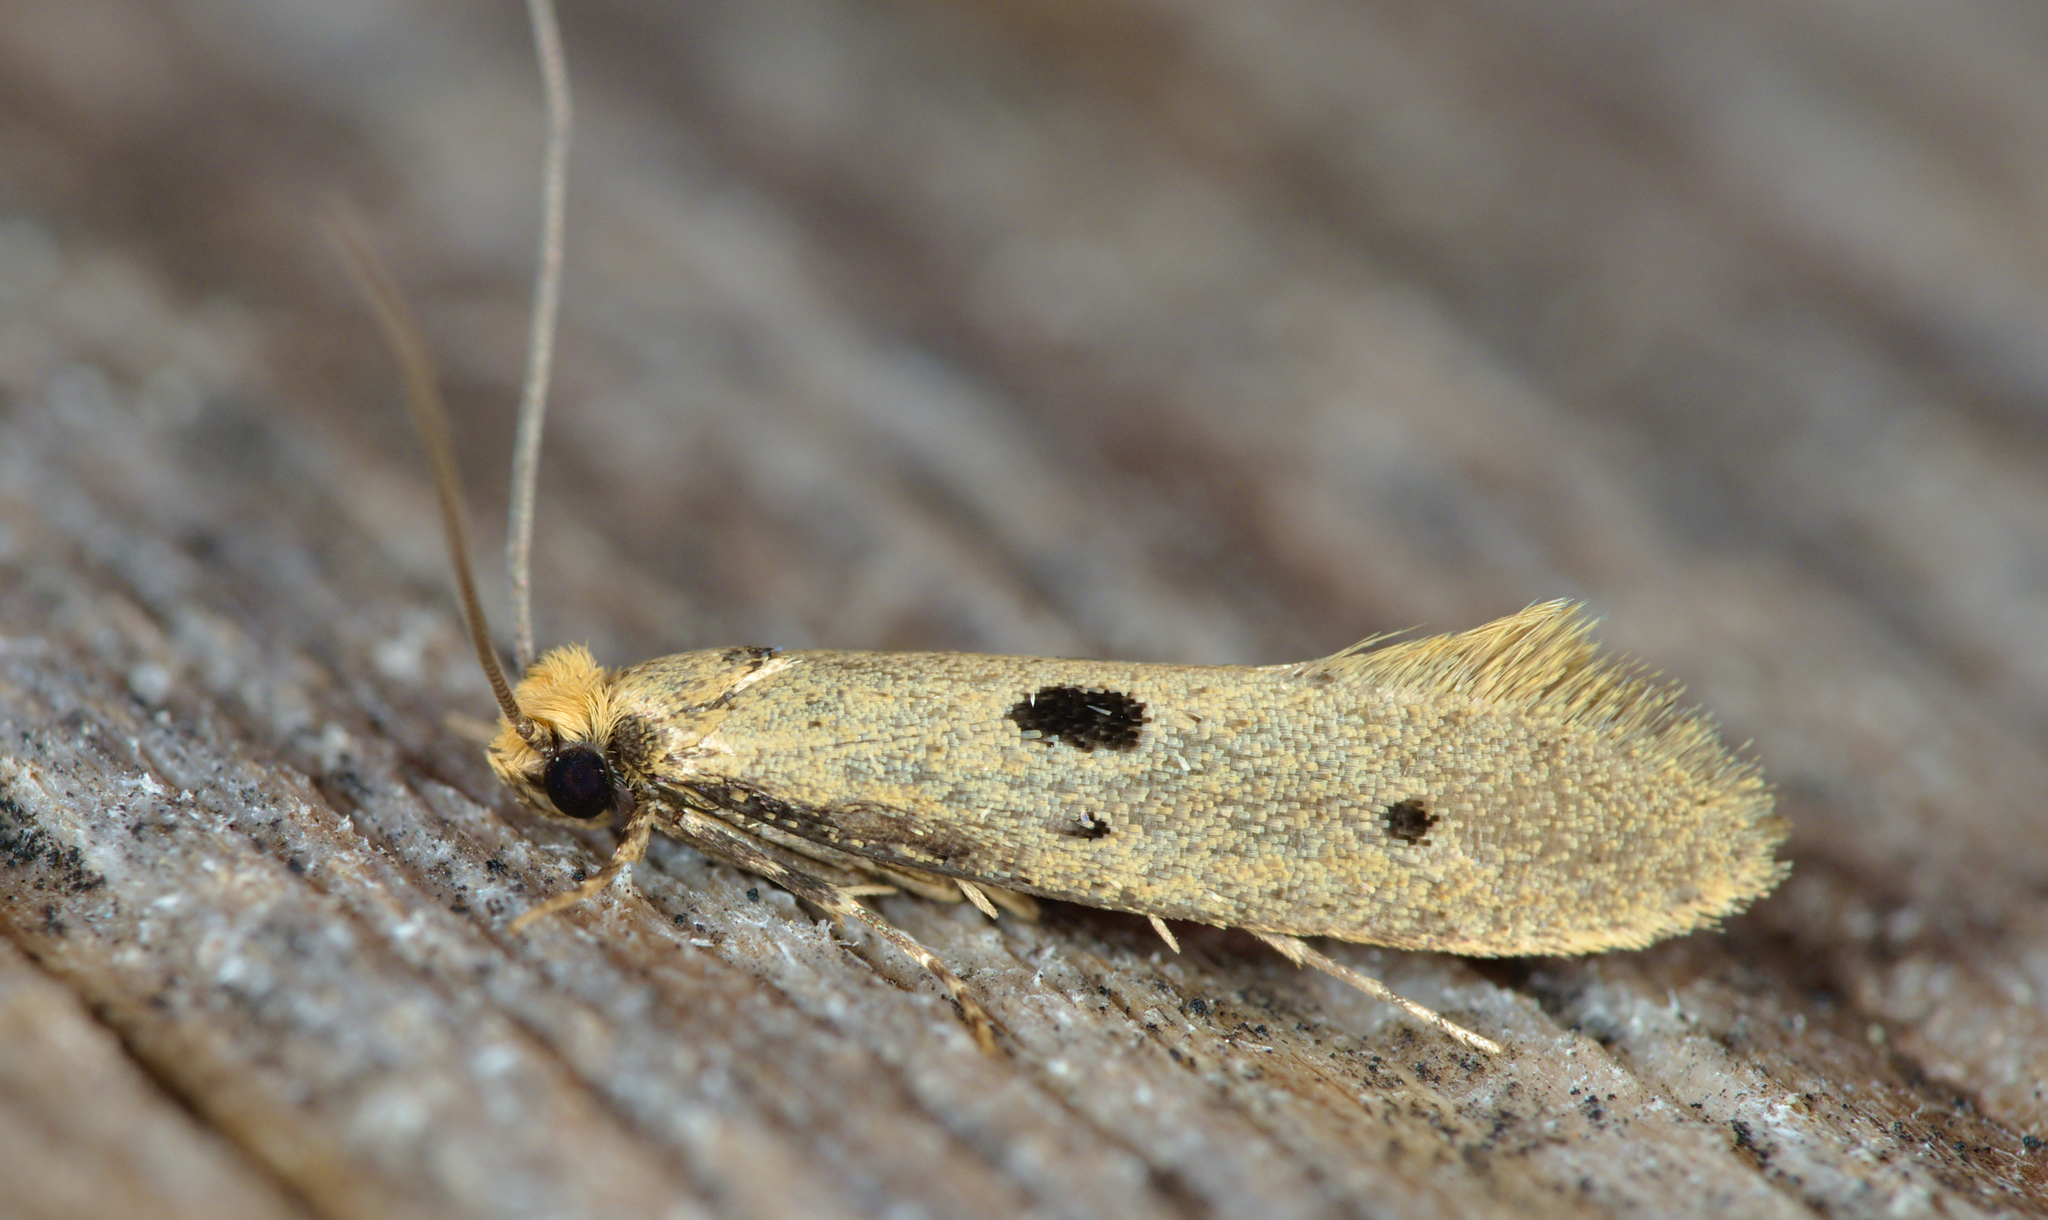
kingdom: Animalia
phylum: Arthropoda
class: Insecta
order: Lepidoptera
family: Tineidae
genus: Tinea
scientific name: Tinea trinotella
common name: Bird's-nest moth
